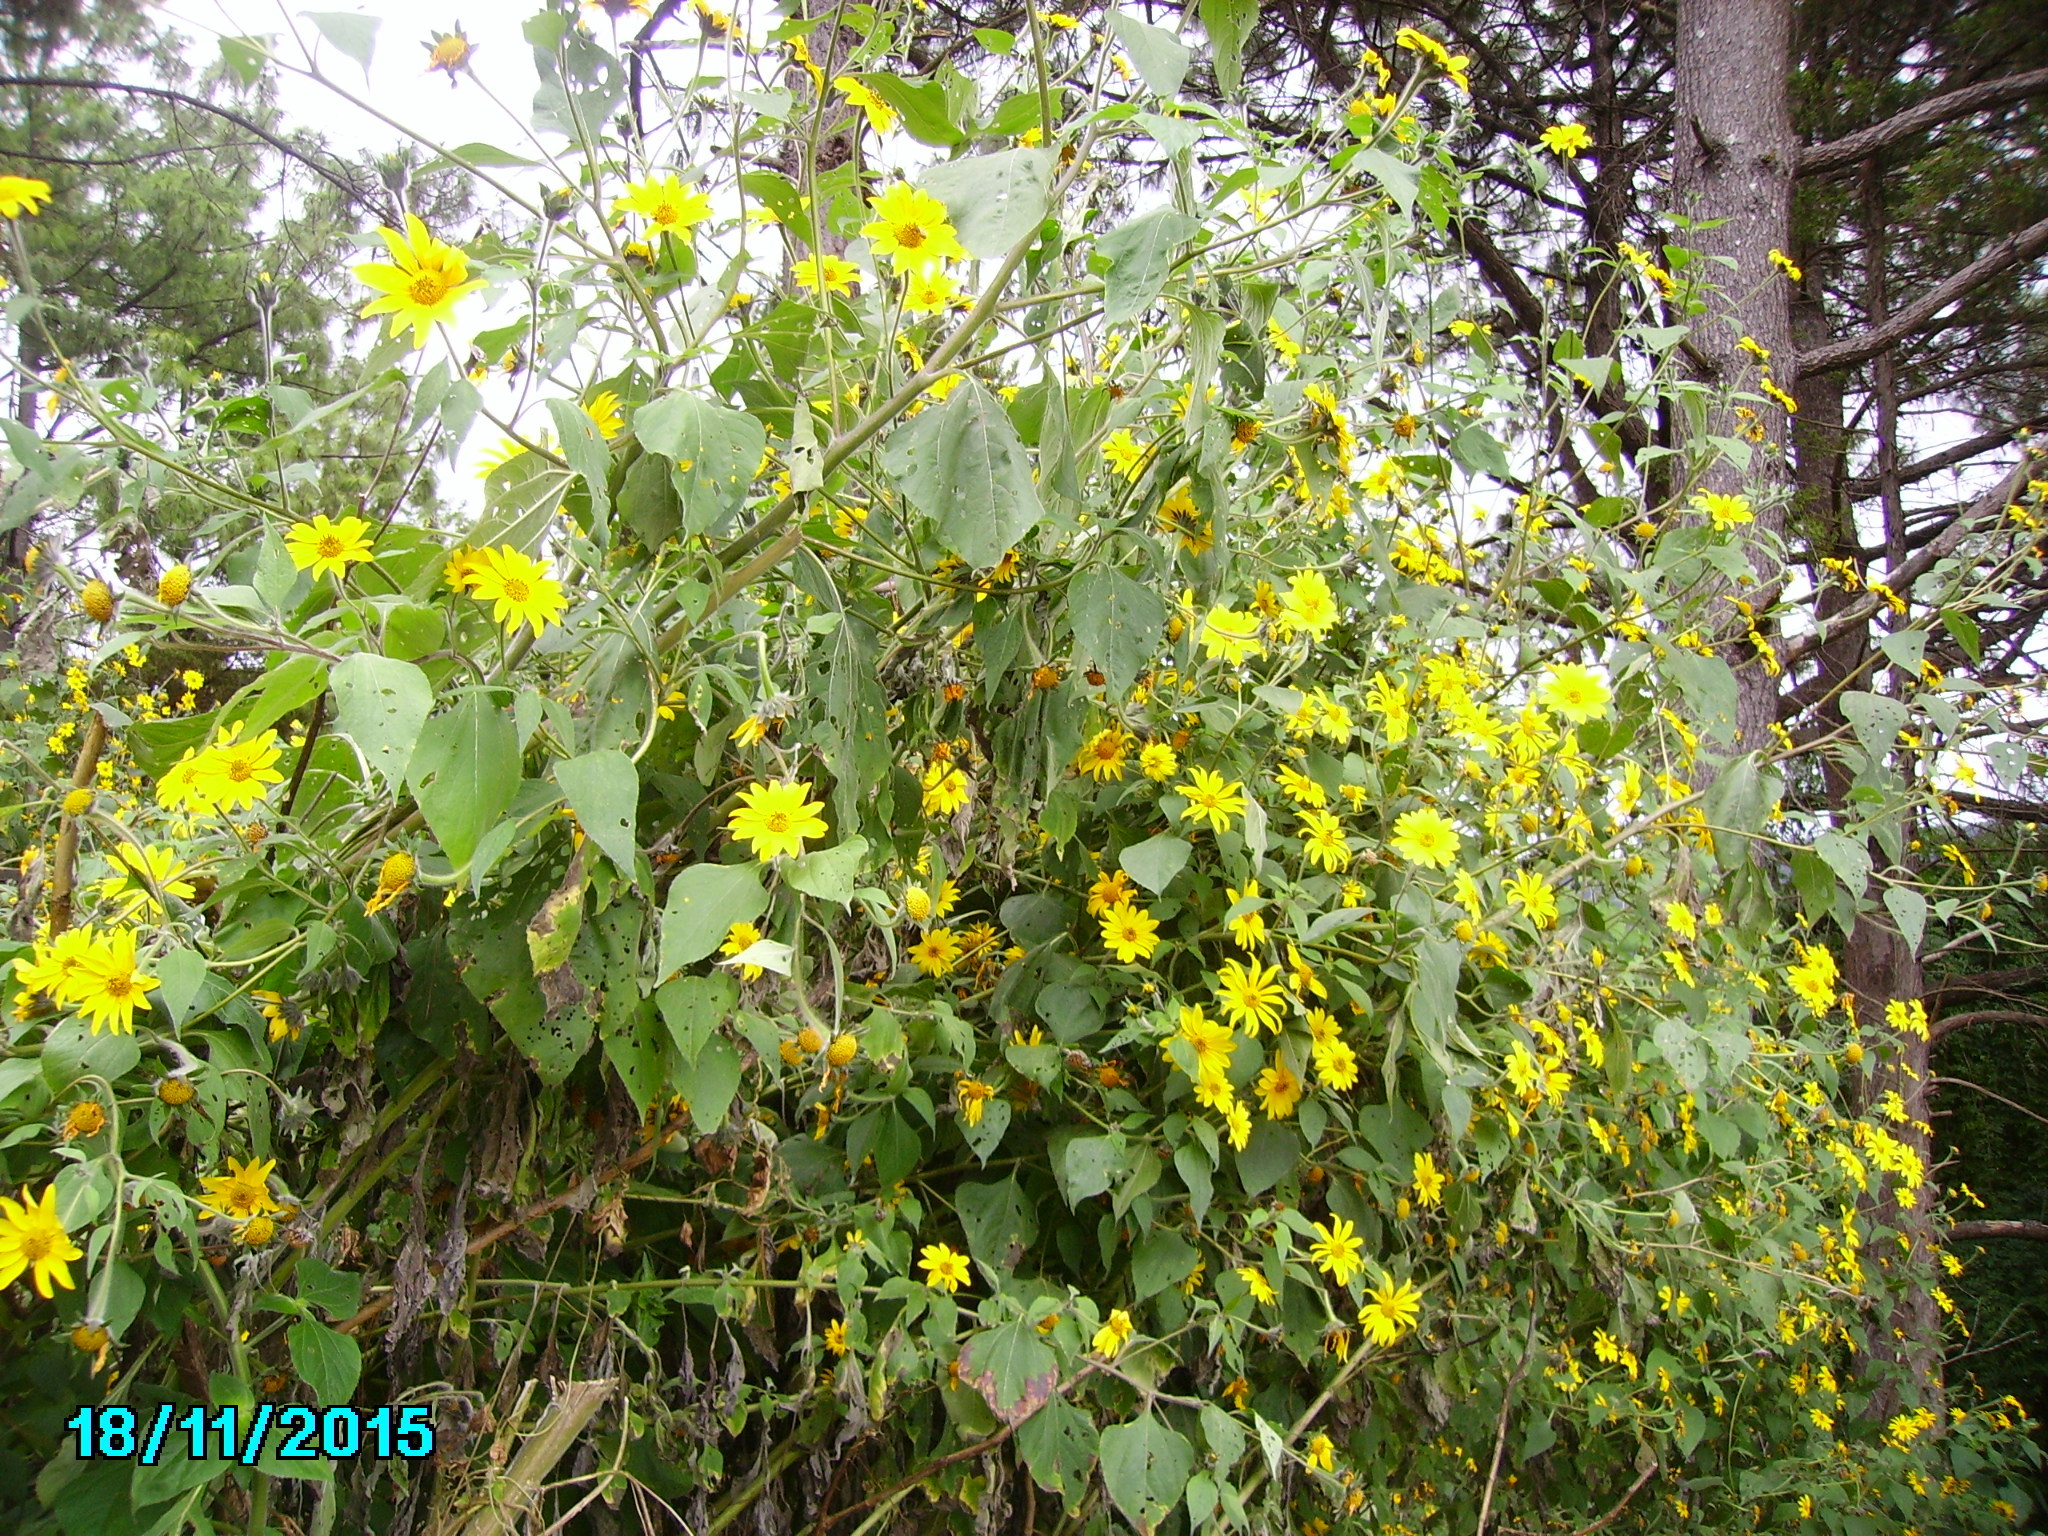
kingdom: Plantae
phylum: Tracheophyta
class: Magnoliopsida
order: Asterales
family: Asteraceae
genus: Tithonia
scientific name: Tithonia tubaeformis
